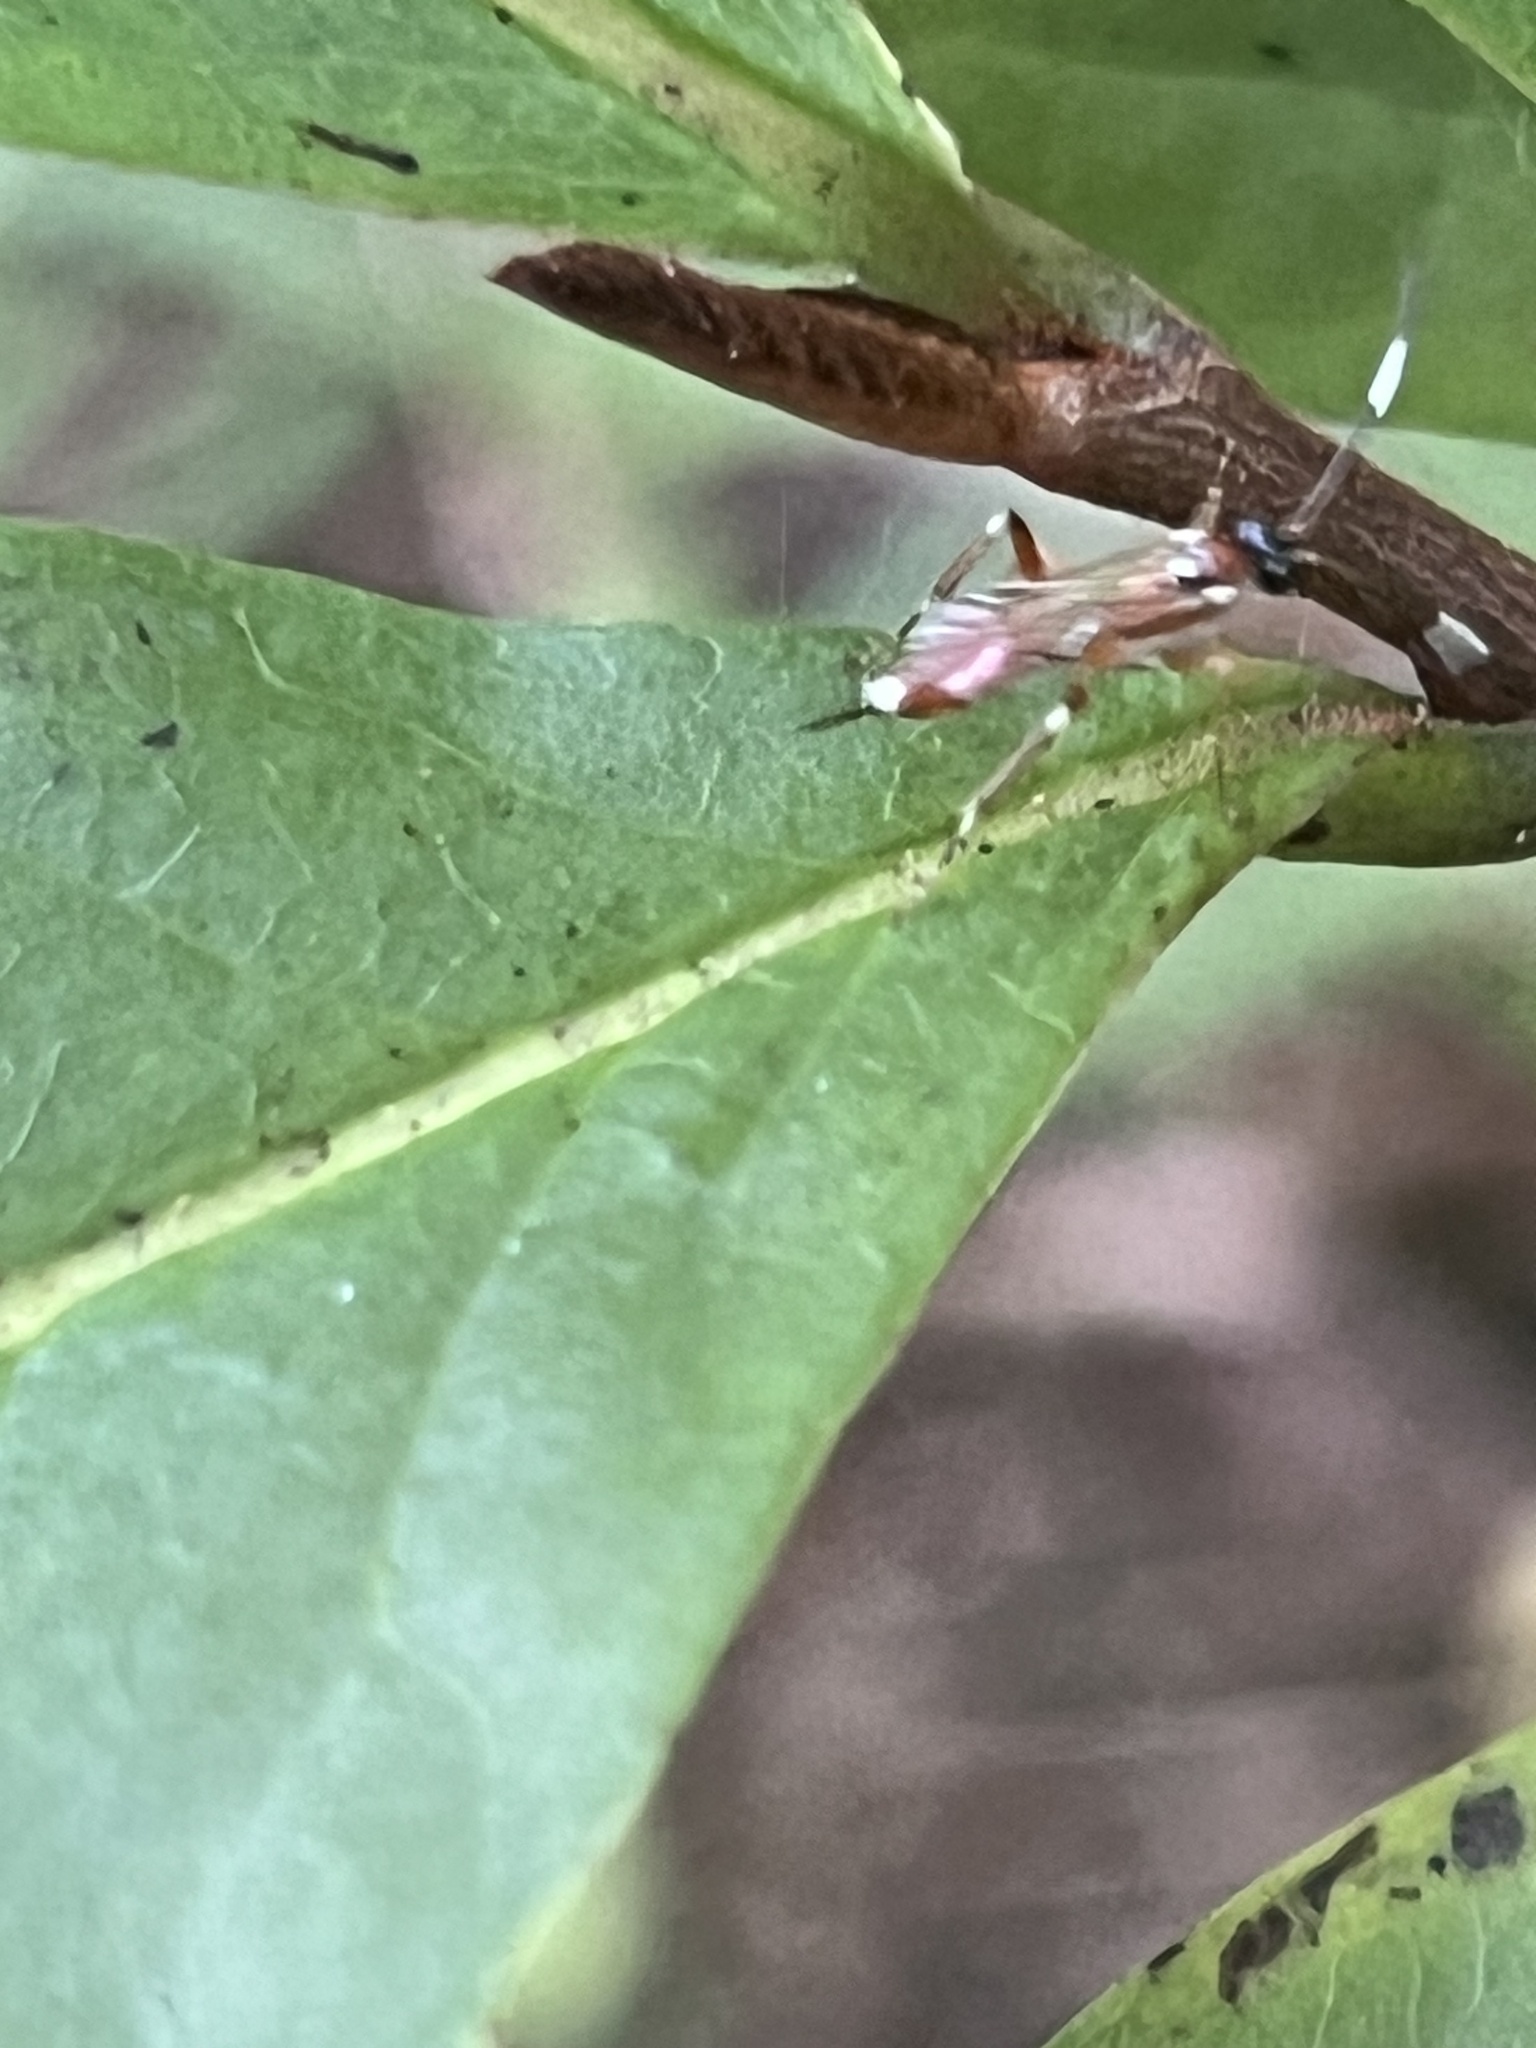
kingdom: Animalia
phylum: Arthropoda
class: Insecta
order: Hymenoptera
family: Ichneumonidae
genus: Ischnus
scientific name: Ischnus cinctipes
